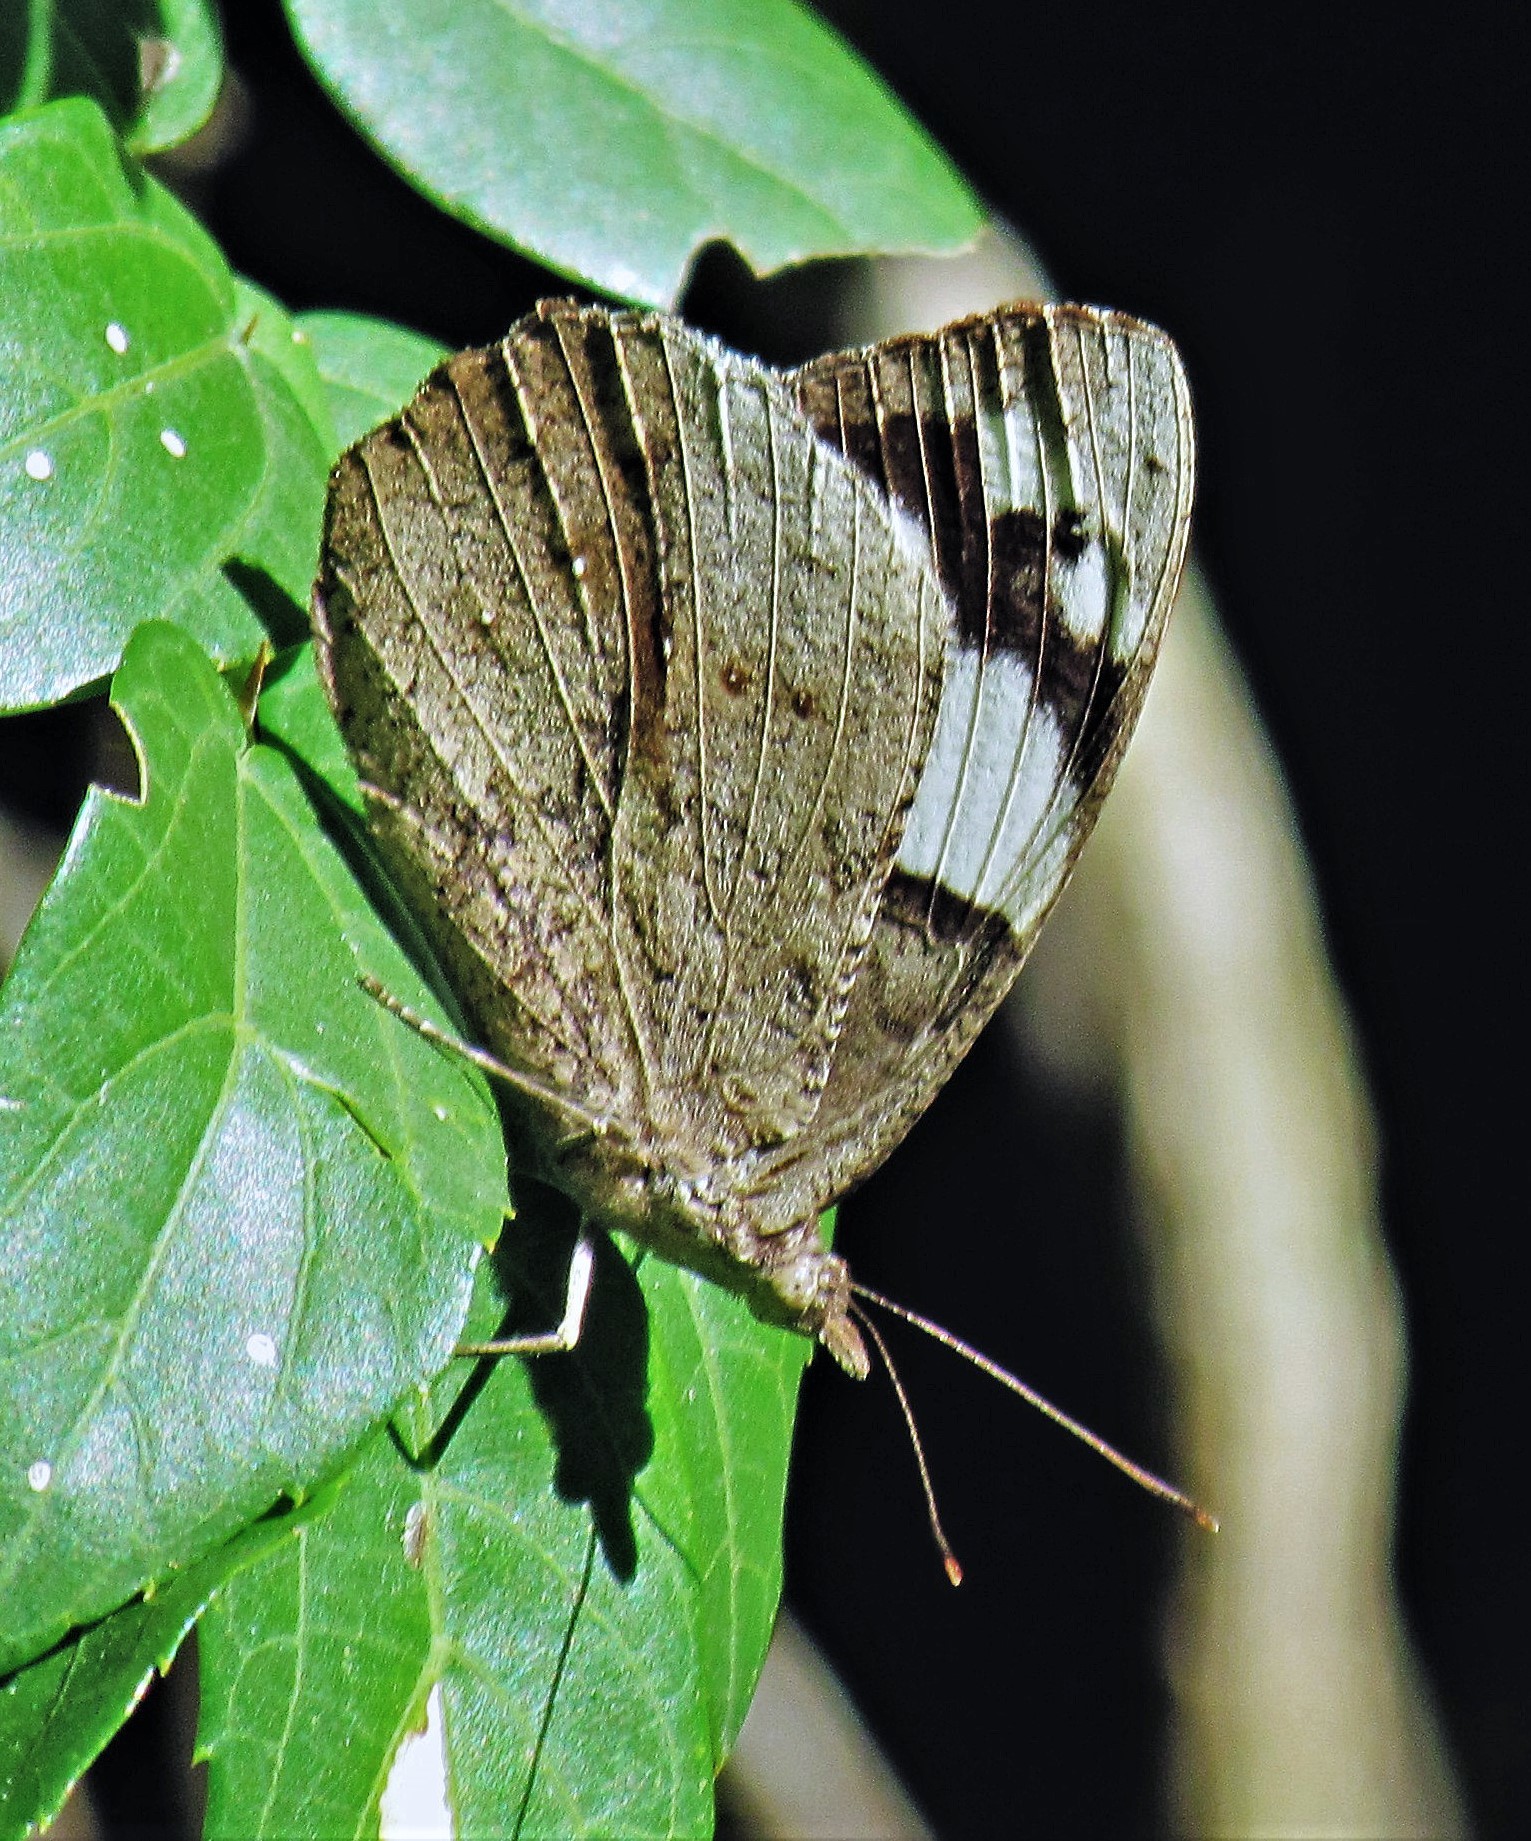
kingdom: Animalia
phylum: Arthropoda
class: Insecta
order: Lepidoptera
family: Nymphalidae
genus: Eunica
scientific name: Eunica eburnea
